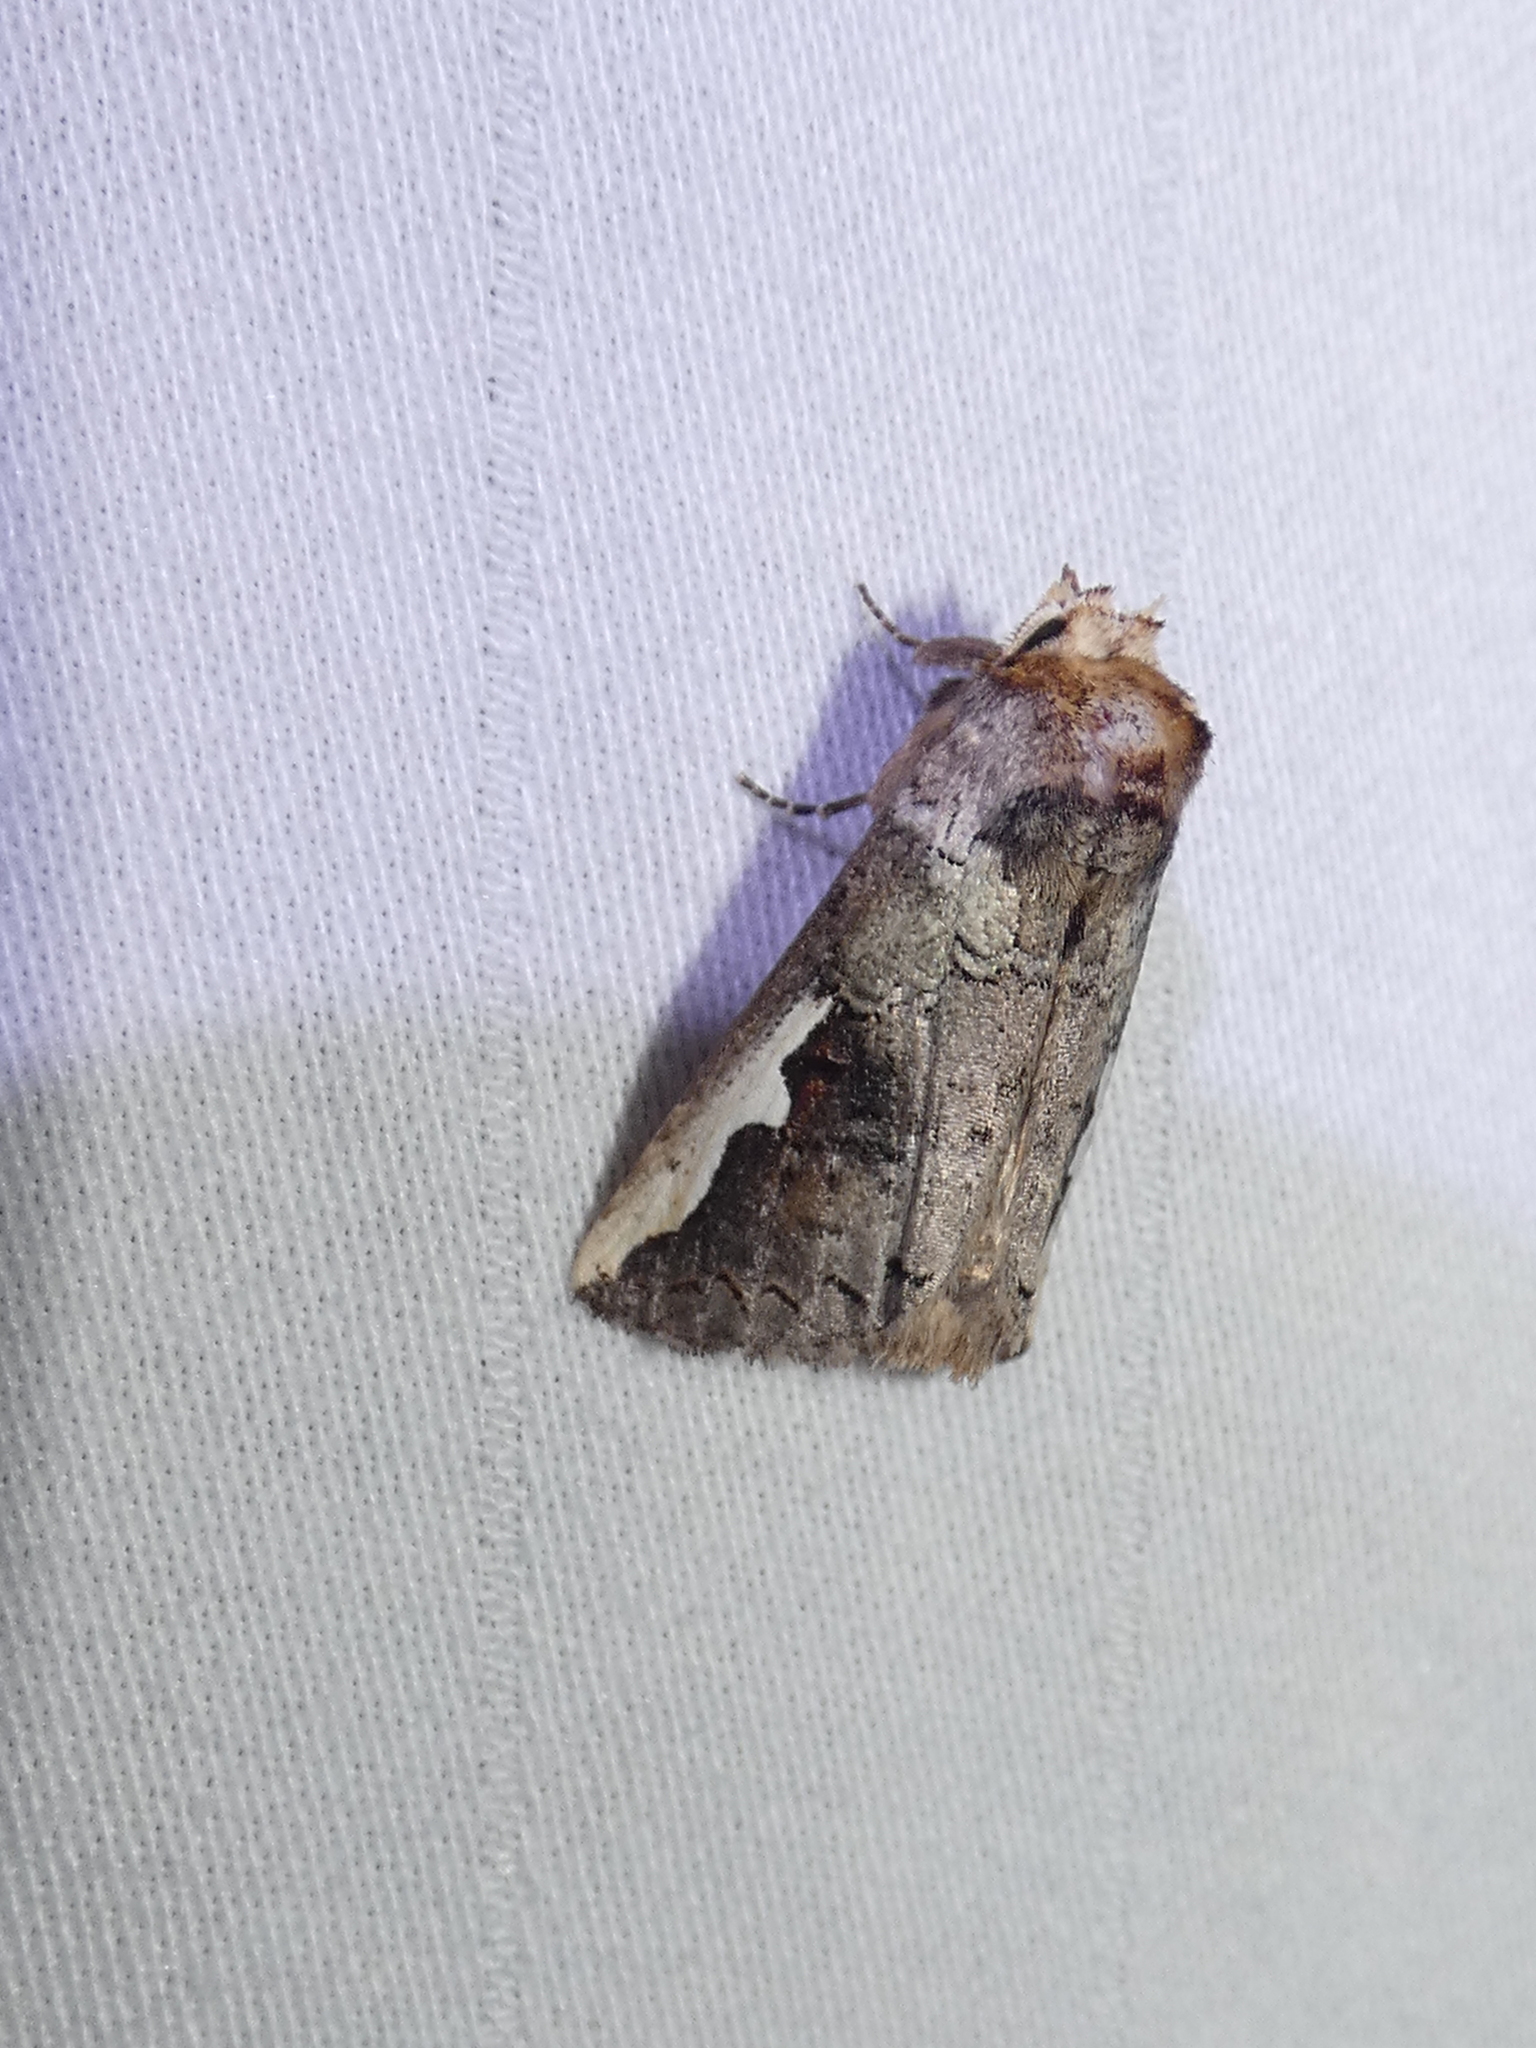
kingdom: Animalia
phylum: Arthropoda
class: Insecta
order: Lepidoptera
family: Notodontidae
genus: Symmerista
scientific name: Symmerista albifrons
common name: White-headed prominent
